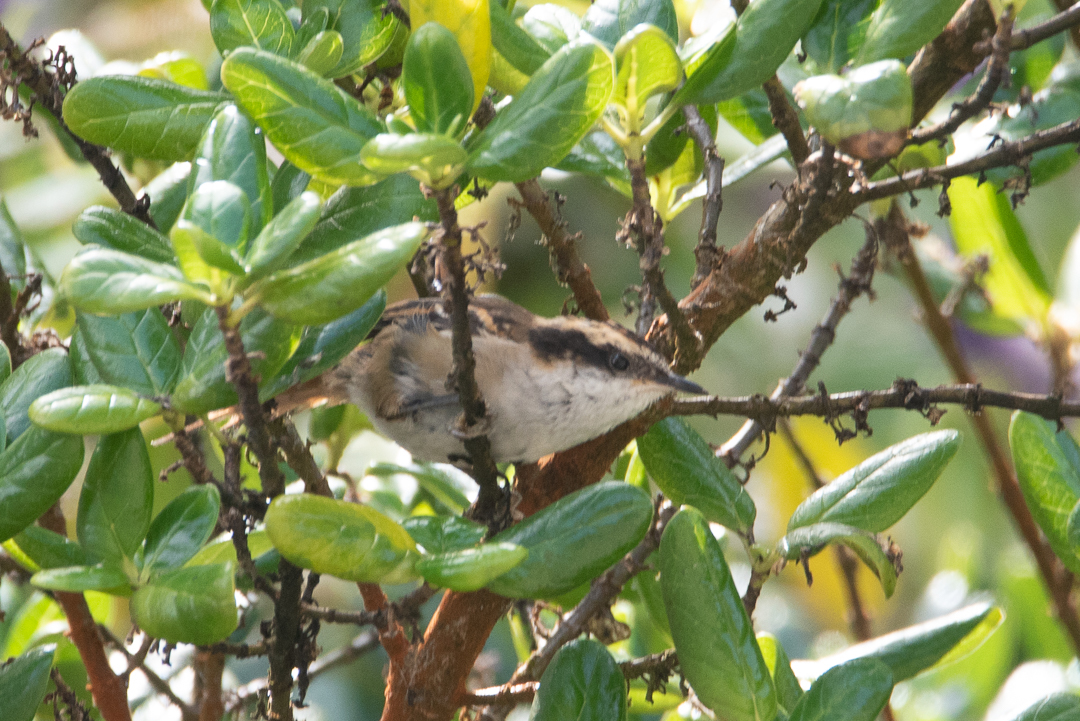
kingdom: Animalia
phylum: Chordata
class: Aves
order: Passeriformes
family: Furnariidae
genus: Aphrastura
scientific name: Aphrastura spinicauda
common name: Thorn-tailed rayadito
